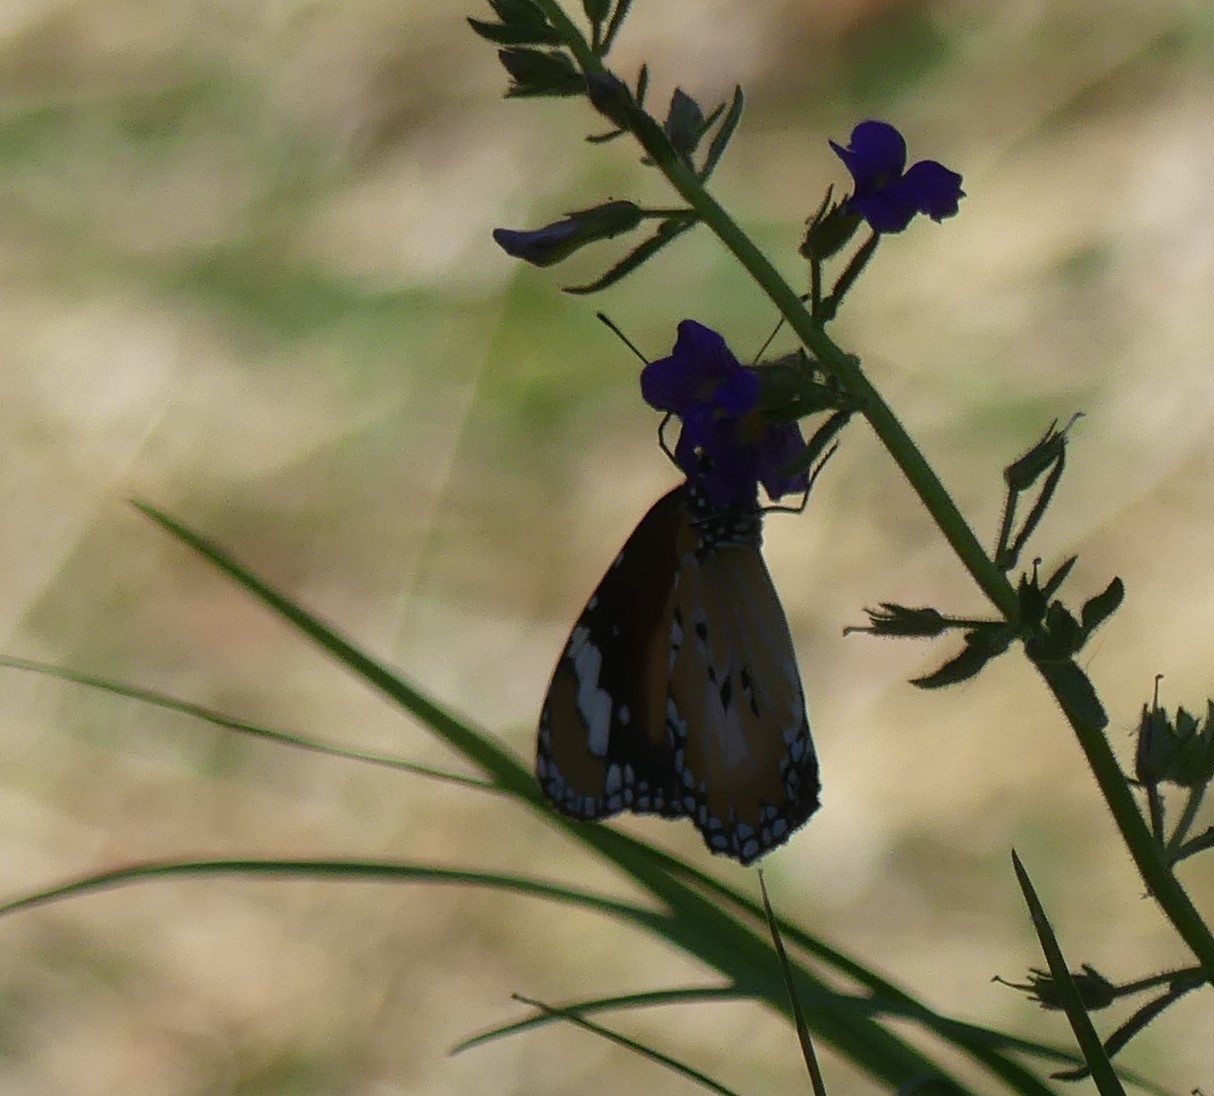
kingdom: Animalia
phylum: Arthropoda
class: Insecta
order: Lepidoptera
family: Nymphalidae
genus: Danaus
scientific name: Danaus chrysippus
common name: Plain tiger
